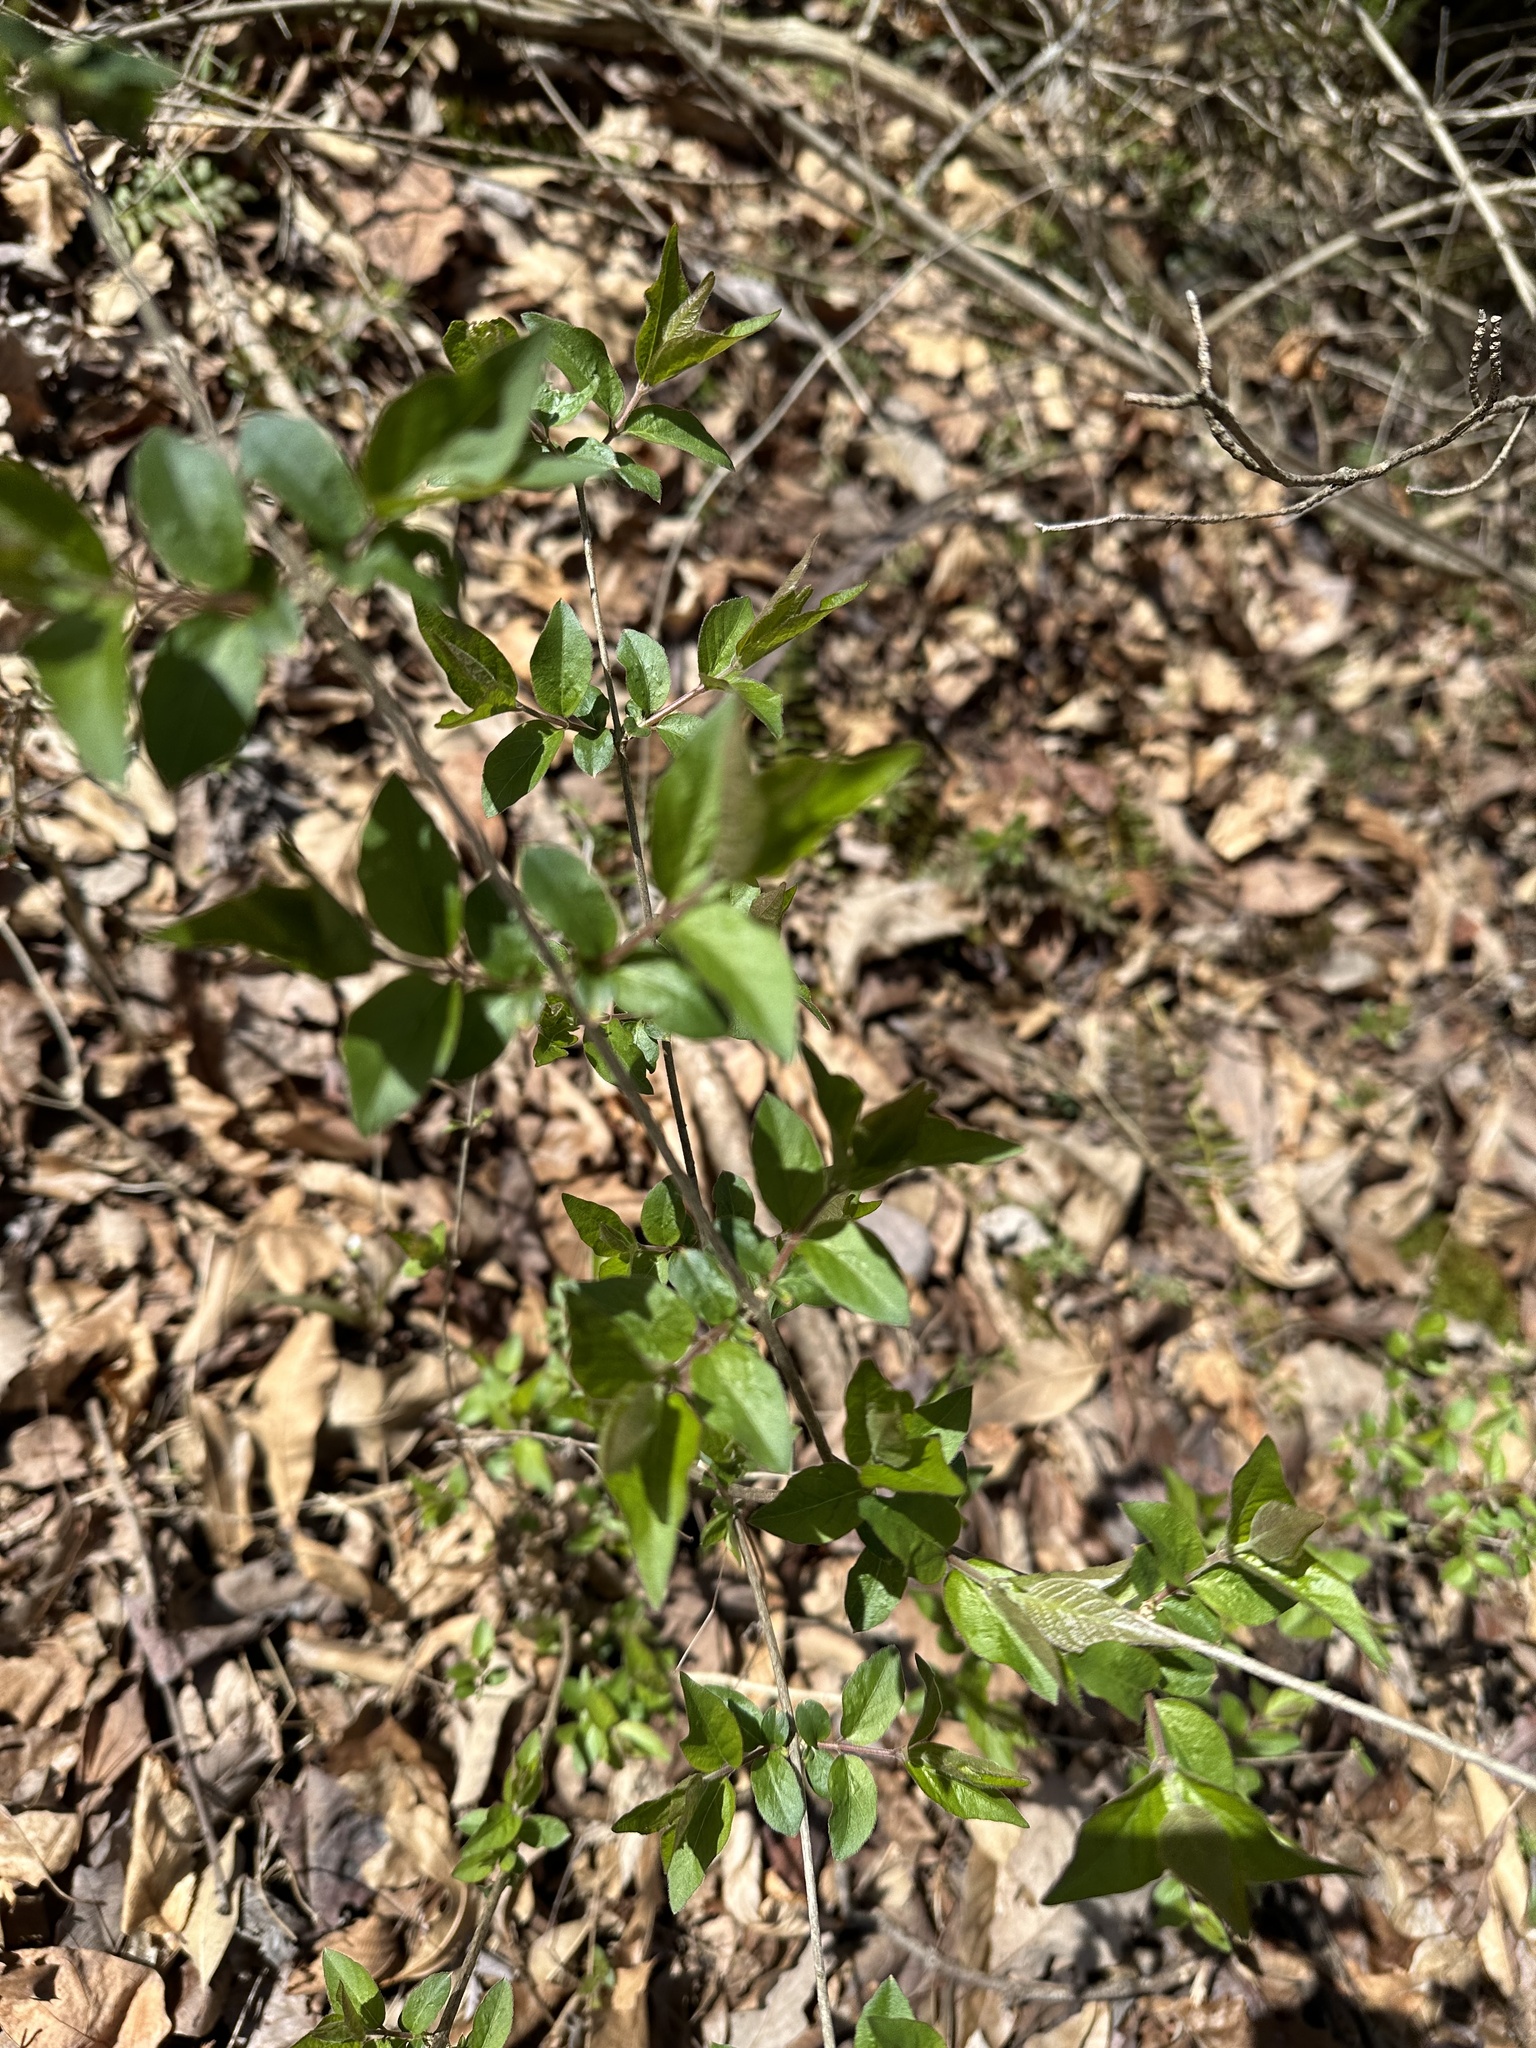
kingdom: Plantae
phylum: Tracheophyta
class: Magnoliopsida
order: Dipsacales
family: Caprifoliaceae
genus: Lonicera
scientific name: Lonicera maackii
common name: Amur honeysuckle
